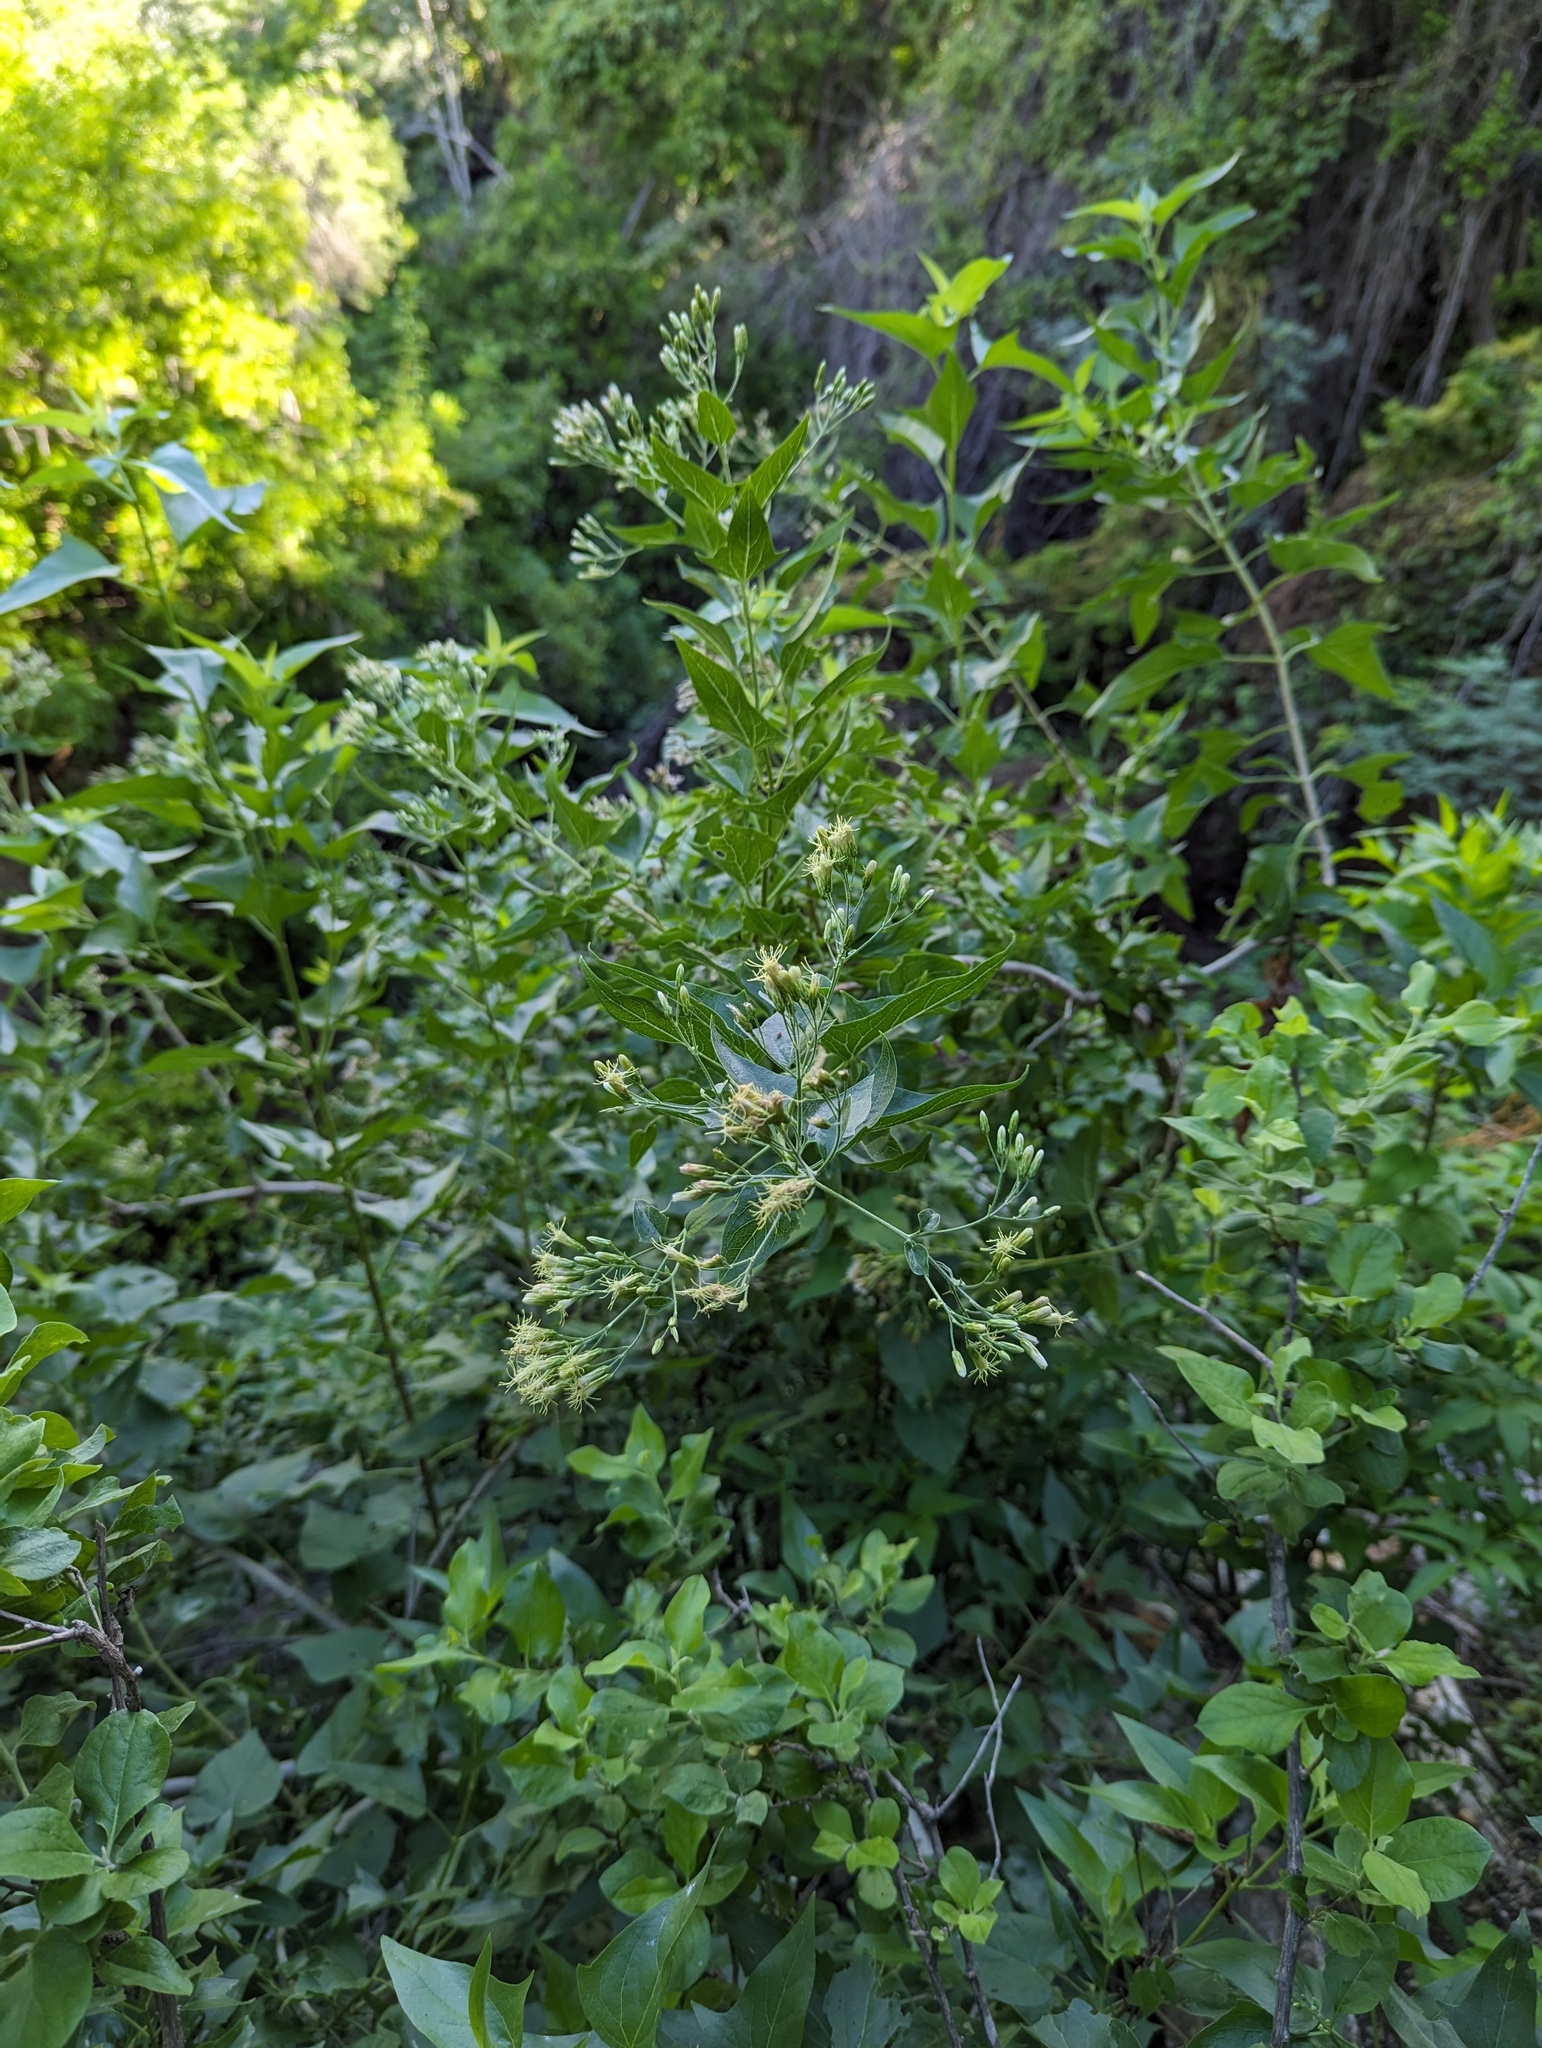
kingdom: Plantae
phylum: Tracheophyta
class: Magnoliopsida
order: Asterales
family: Asteraceae
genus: Koanophyllon
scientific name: Koanophyllon peninsulare
